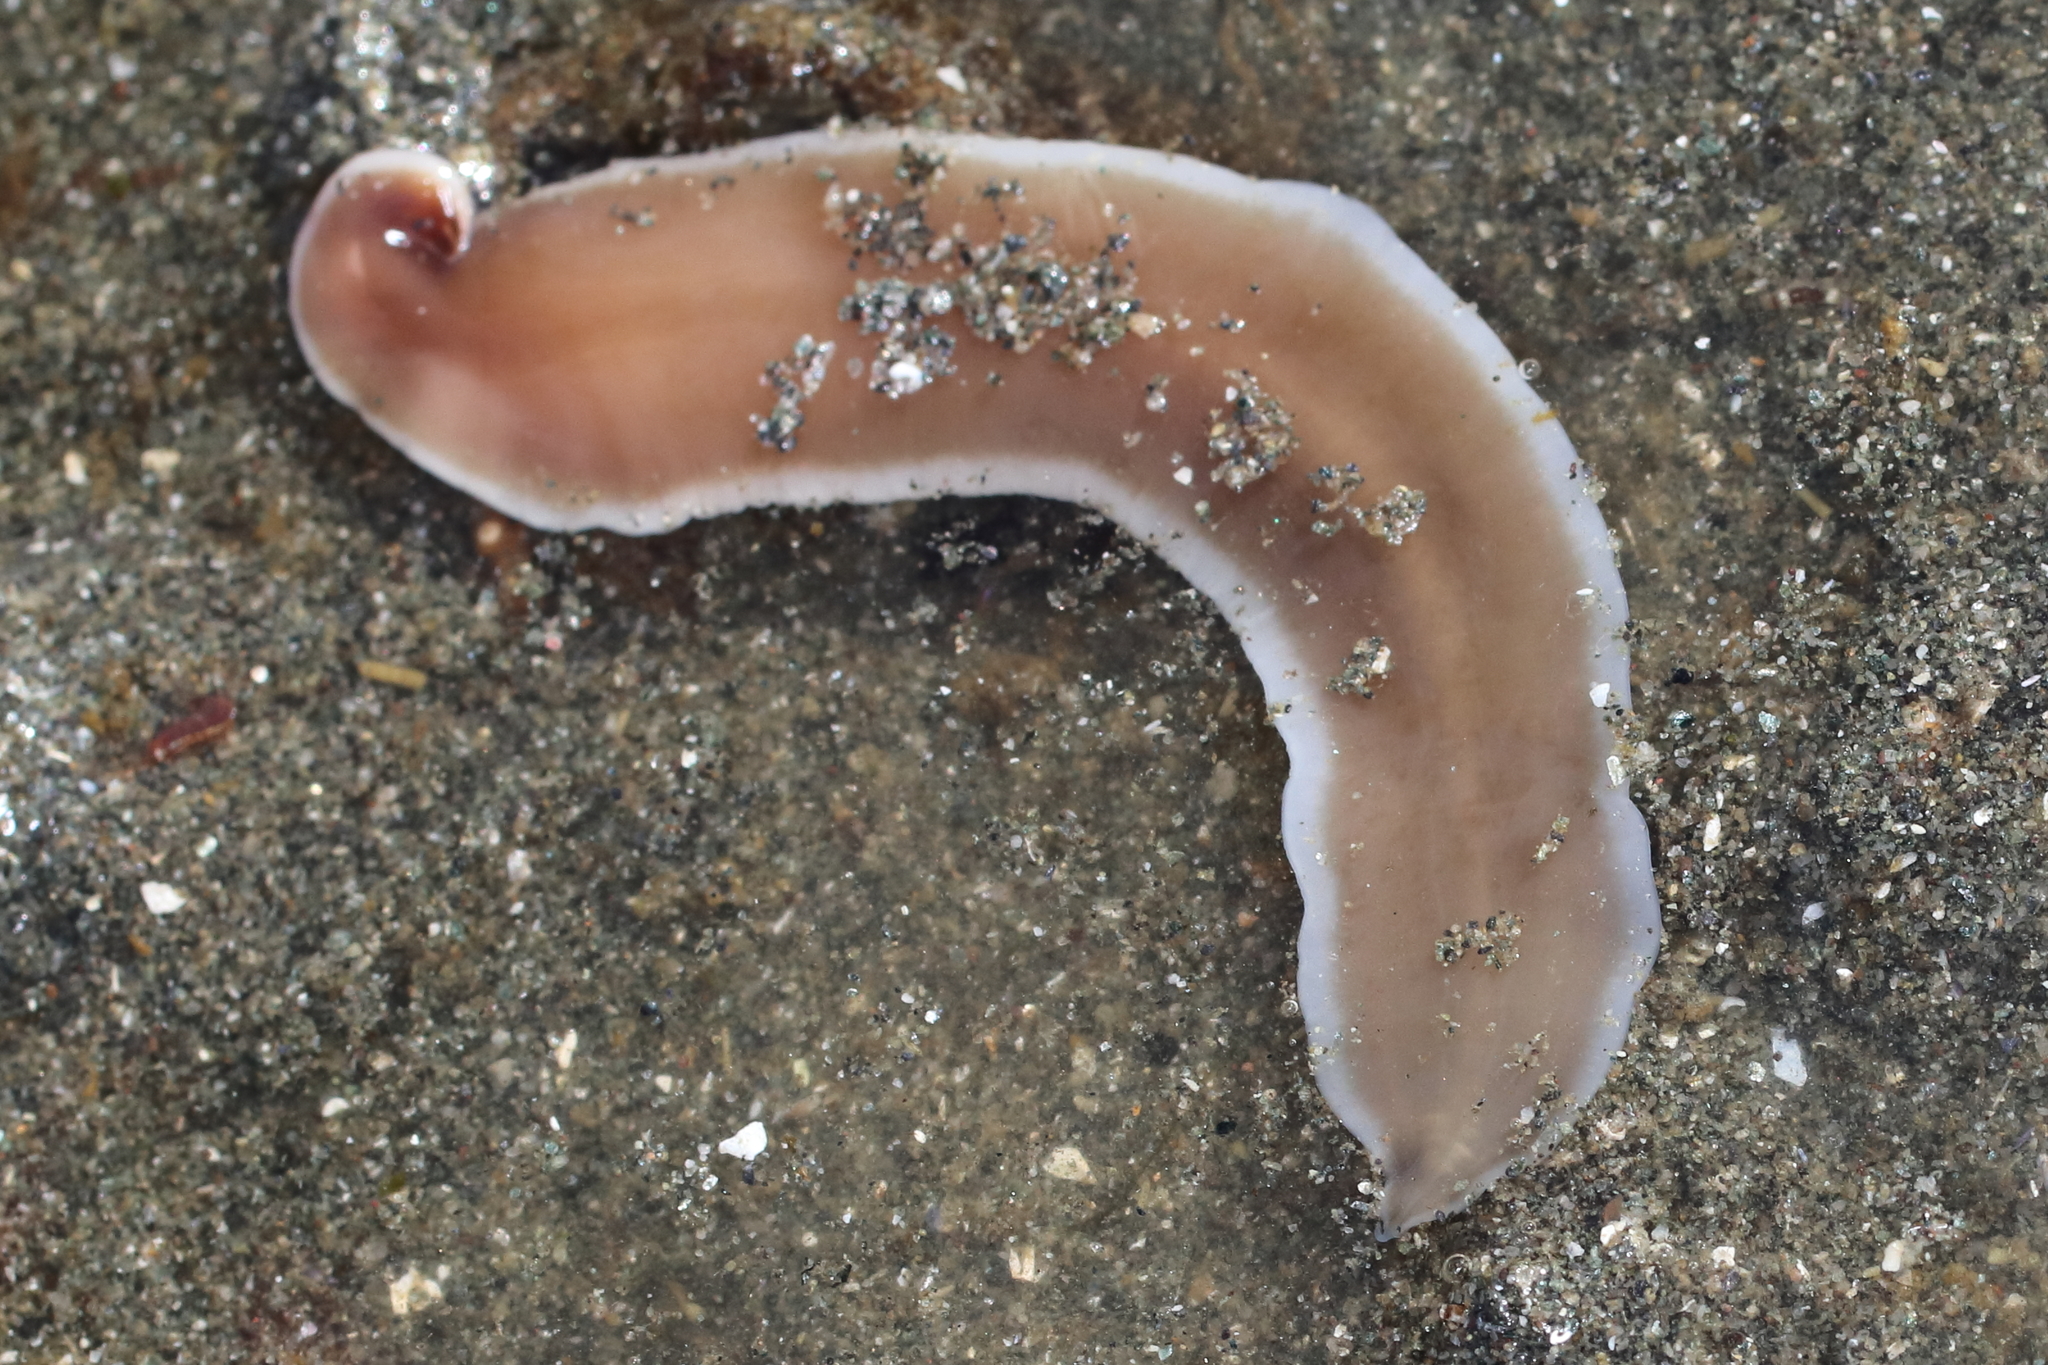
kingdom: Animalia
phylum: Nemertea
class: Pilidiophora
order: Heteronemertea
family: Lineidae
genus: Cerebratulus
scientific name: Cerebratulus marginatus
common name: Black ribbon worm
